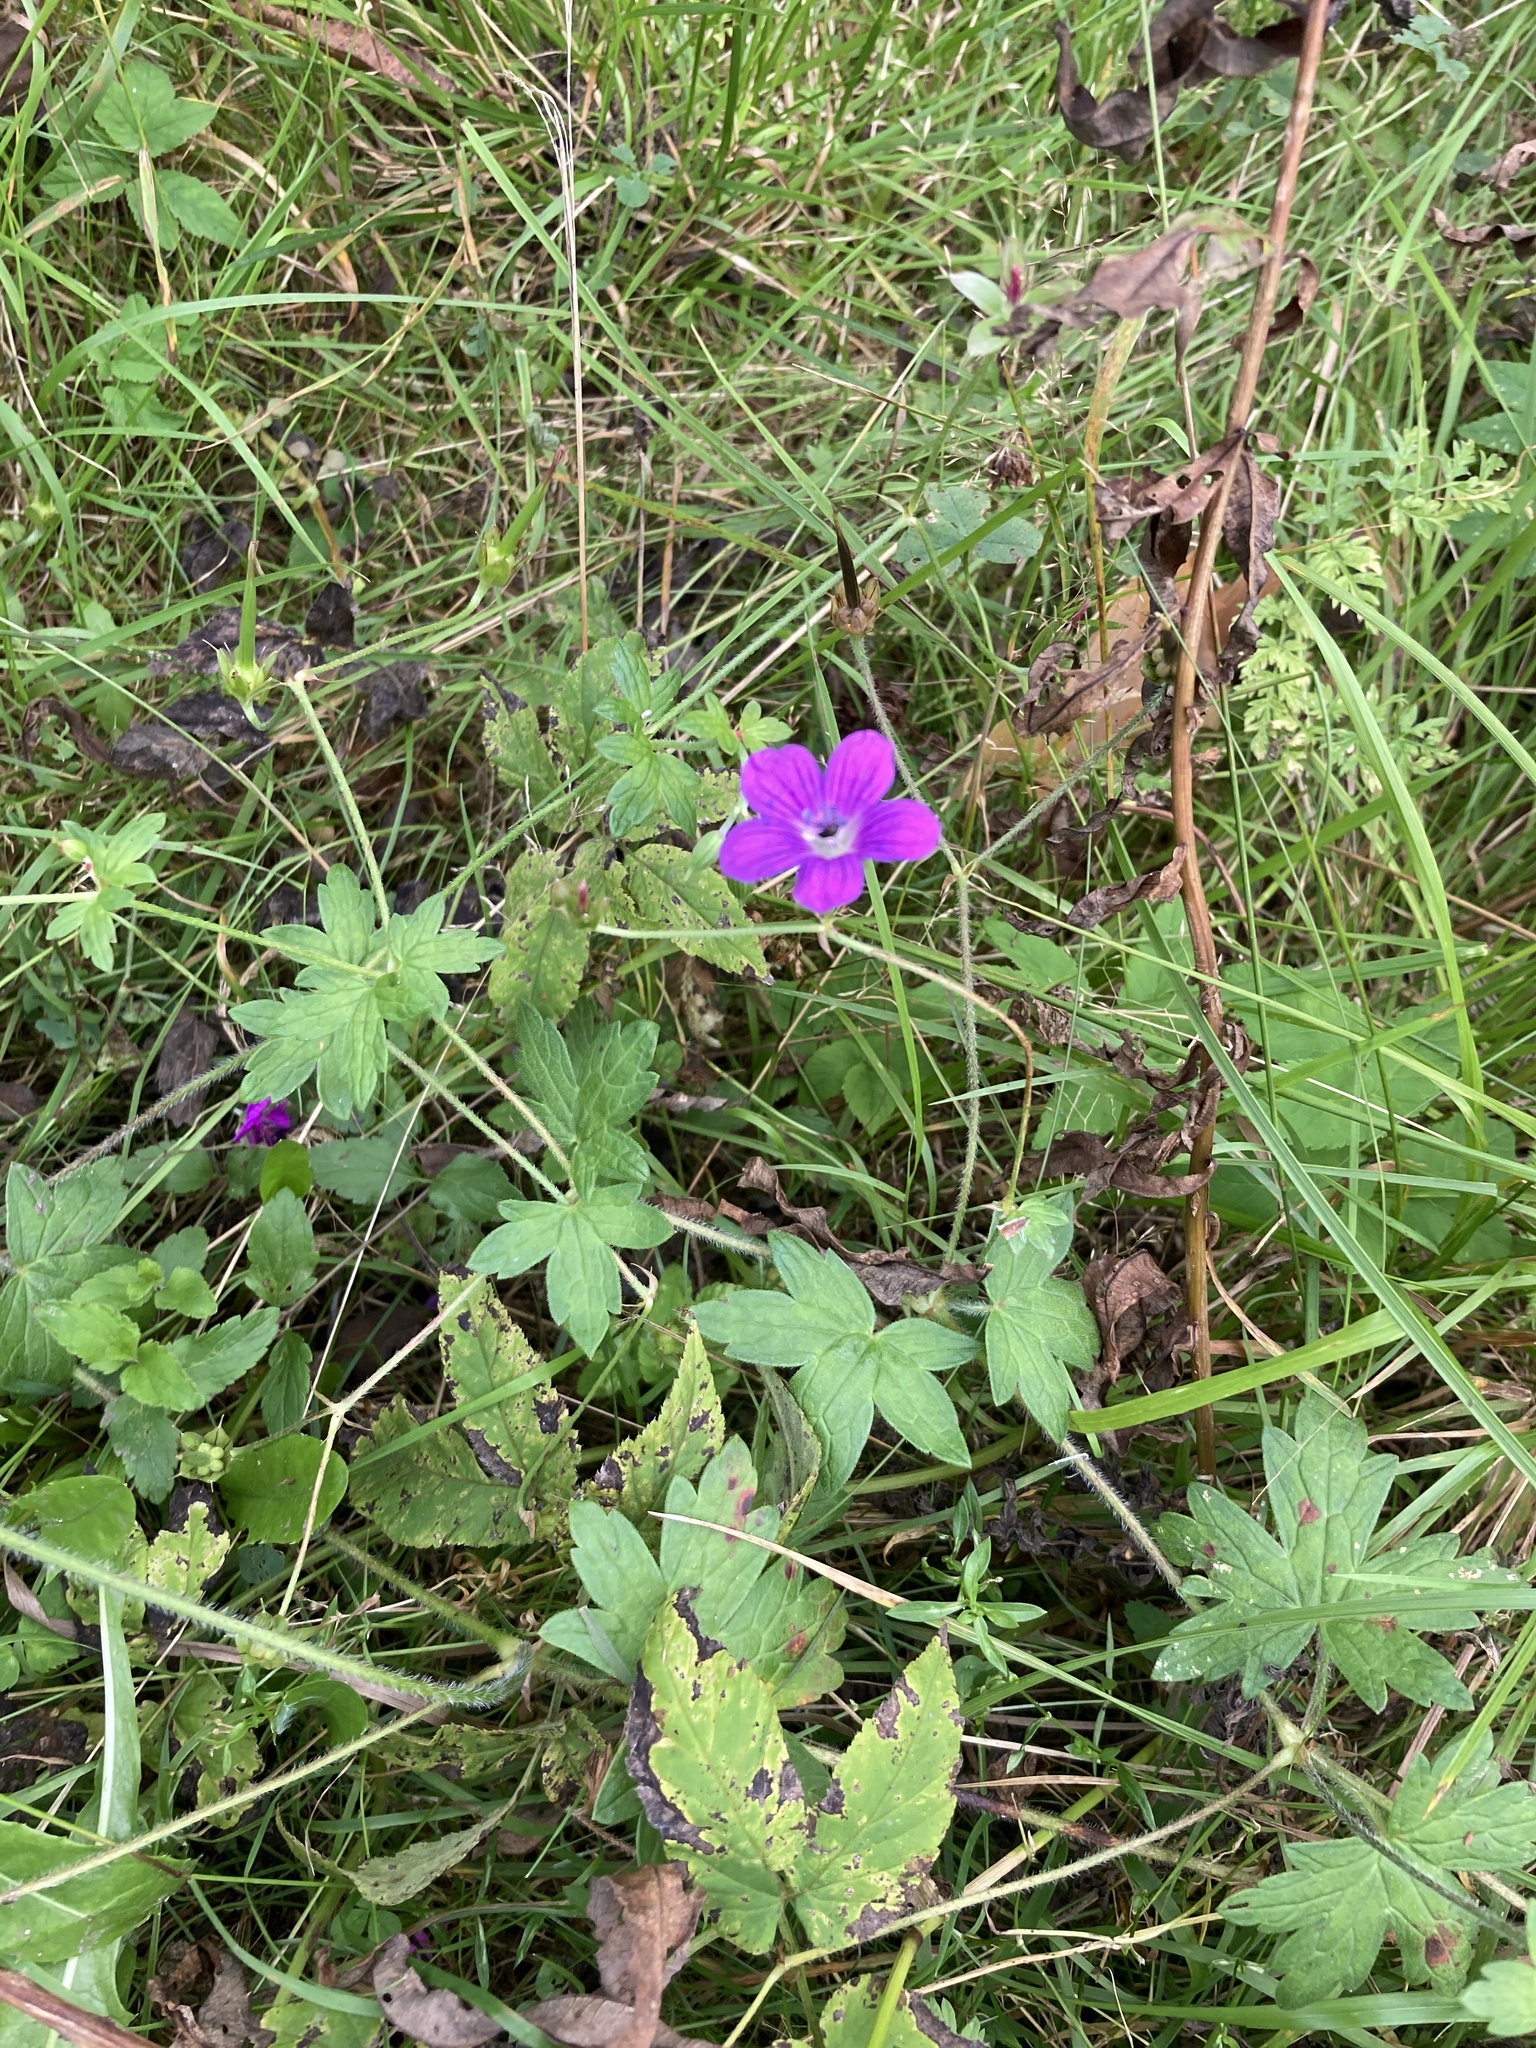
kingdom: Plantae
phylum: Tracheophyta
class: Magnoliopsida
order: Geraniales
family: Geraniaceae
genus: Geranium
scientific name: Geranium palustre
